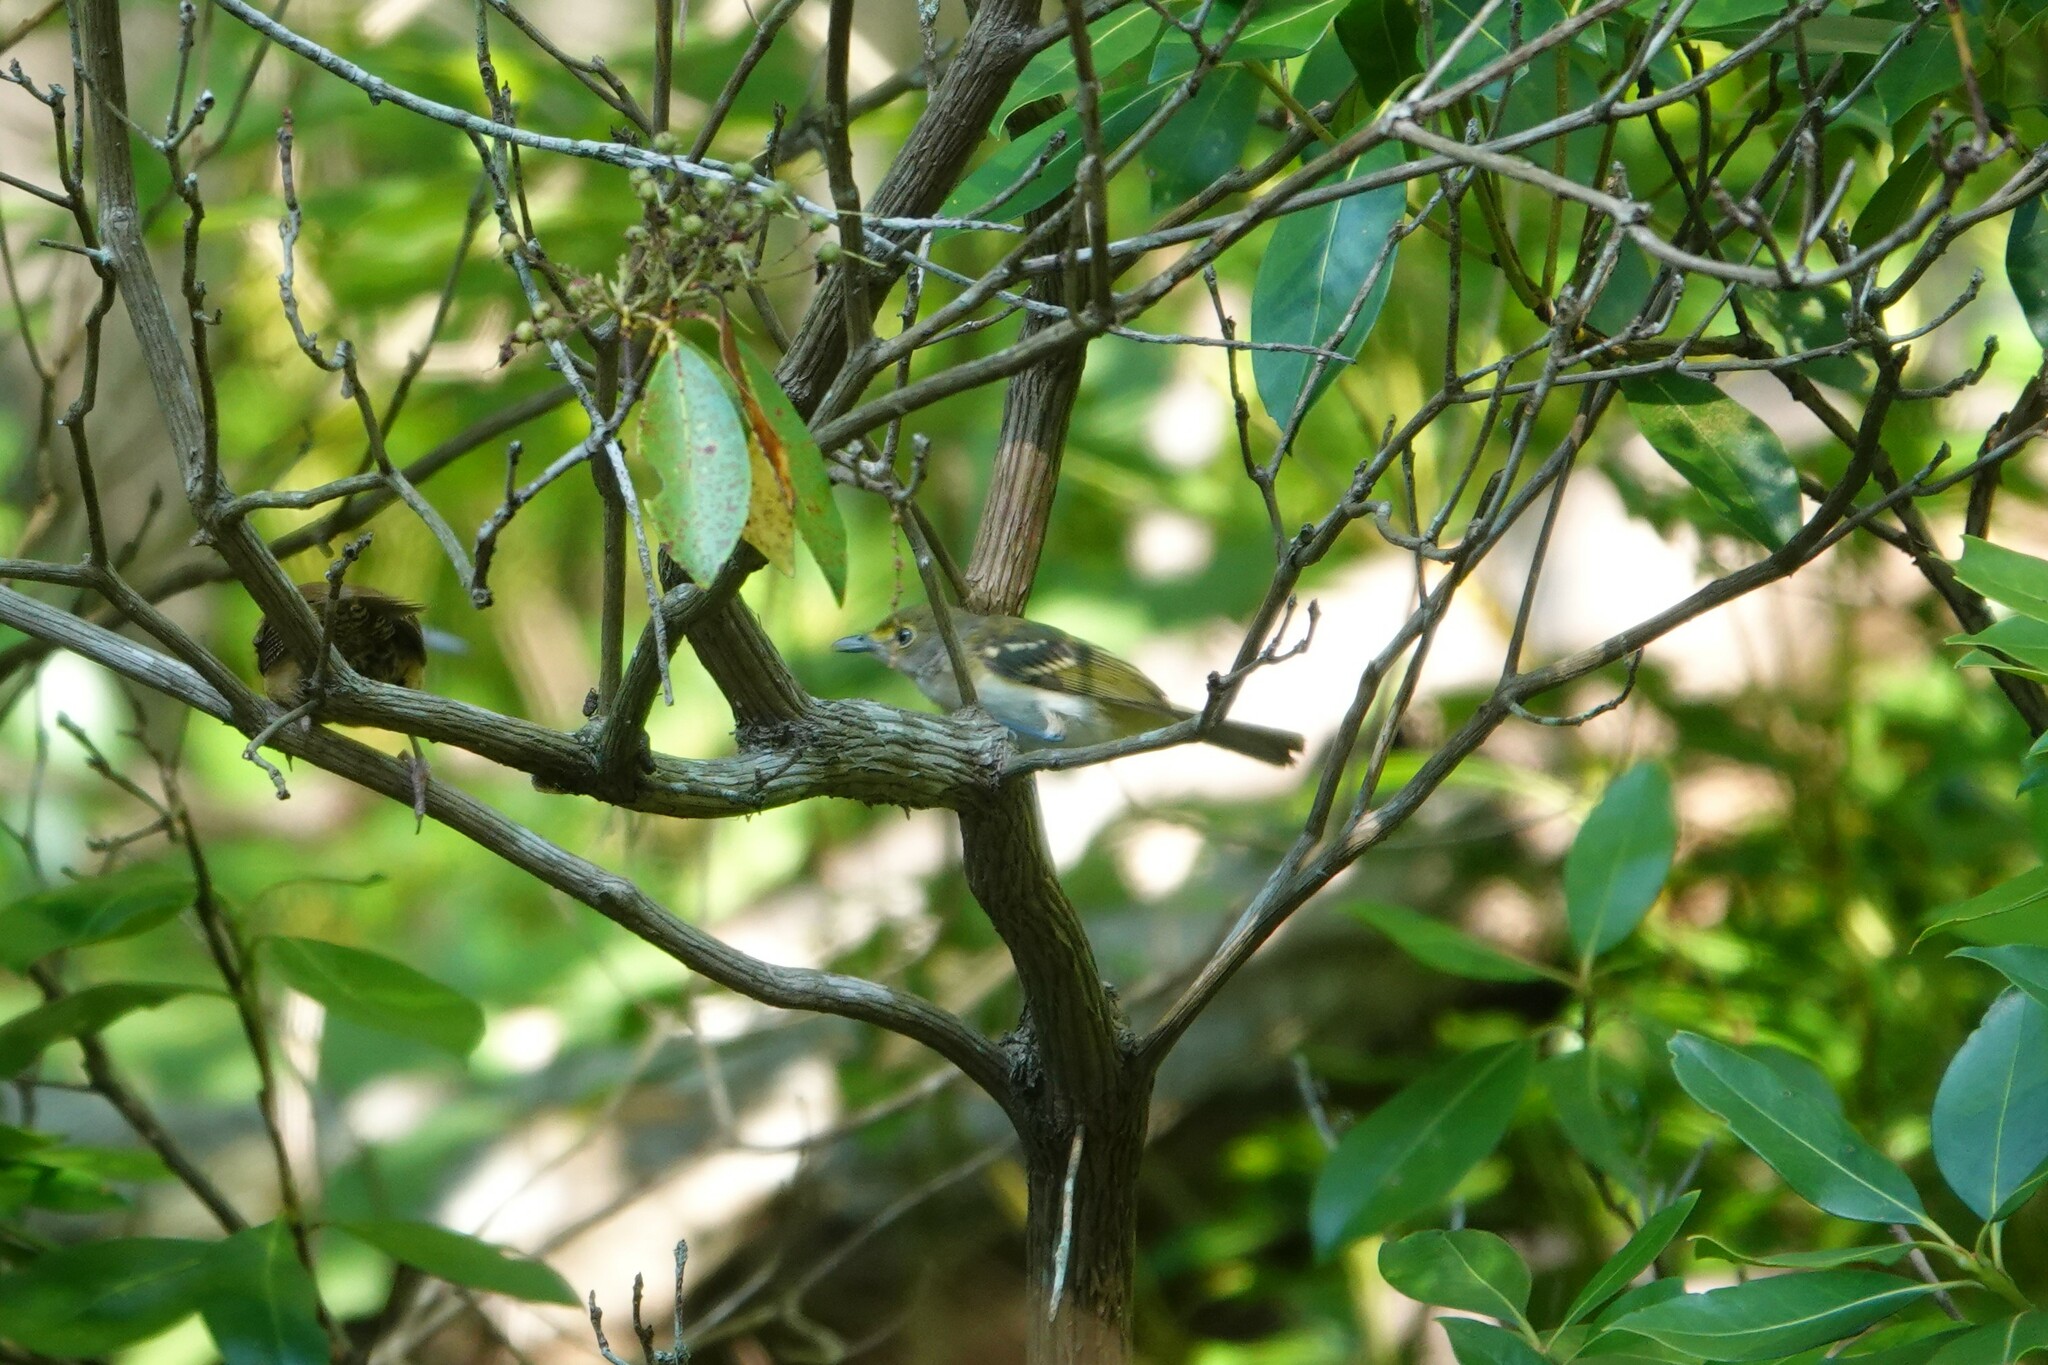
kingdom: Animalia
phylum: Chordata
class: Aves
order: Passeriformes
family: Vireonidae
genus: Vireo
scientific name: Vireo griseus
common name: White-eyed vireo
